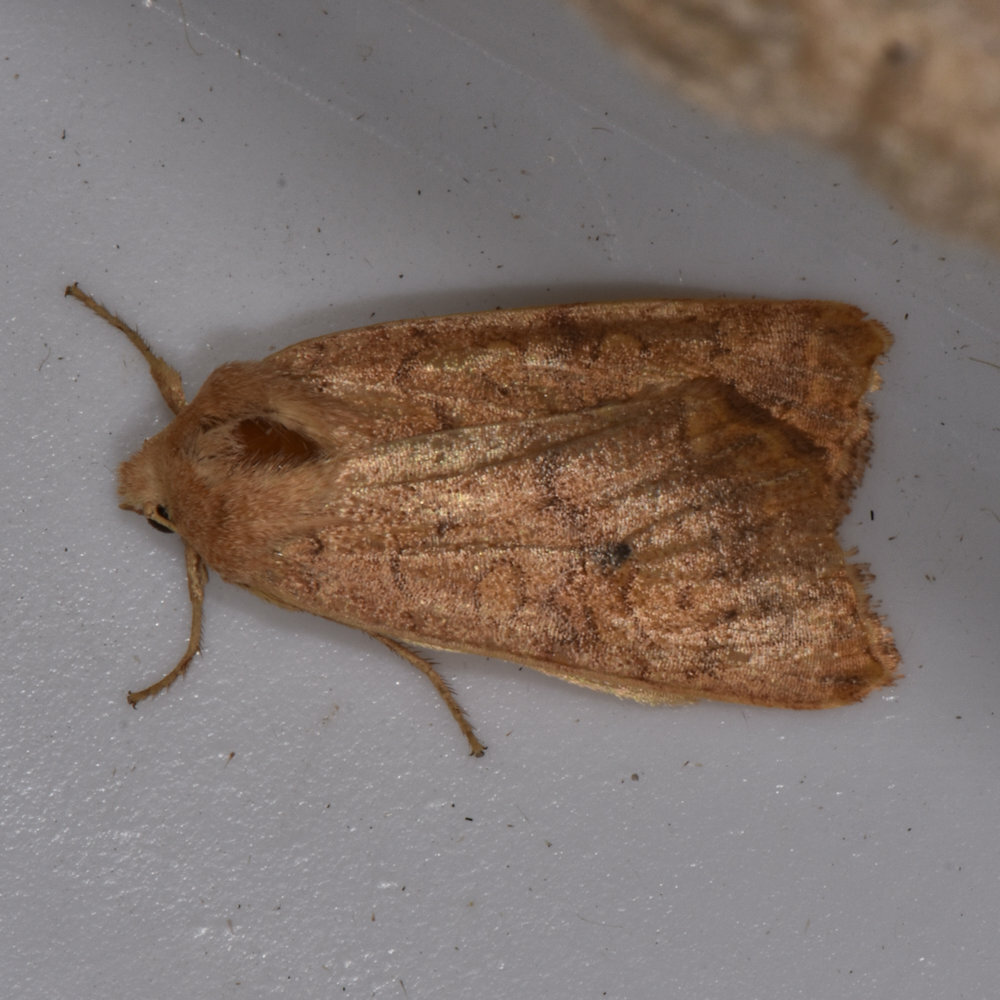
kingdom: Animalia
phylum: Arthropoda
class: Insecta
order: Lepidoptera
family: Noctuidae
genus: Agrochola
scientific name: Agrochola bicolorago
